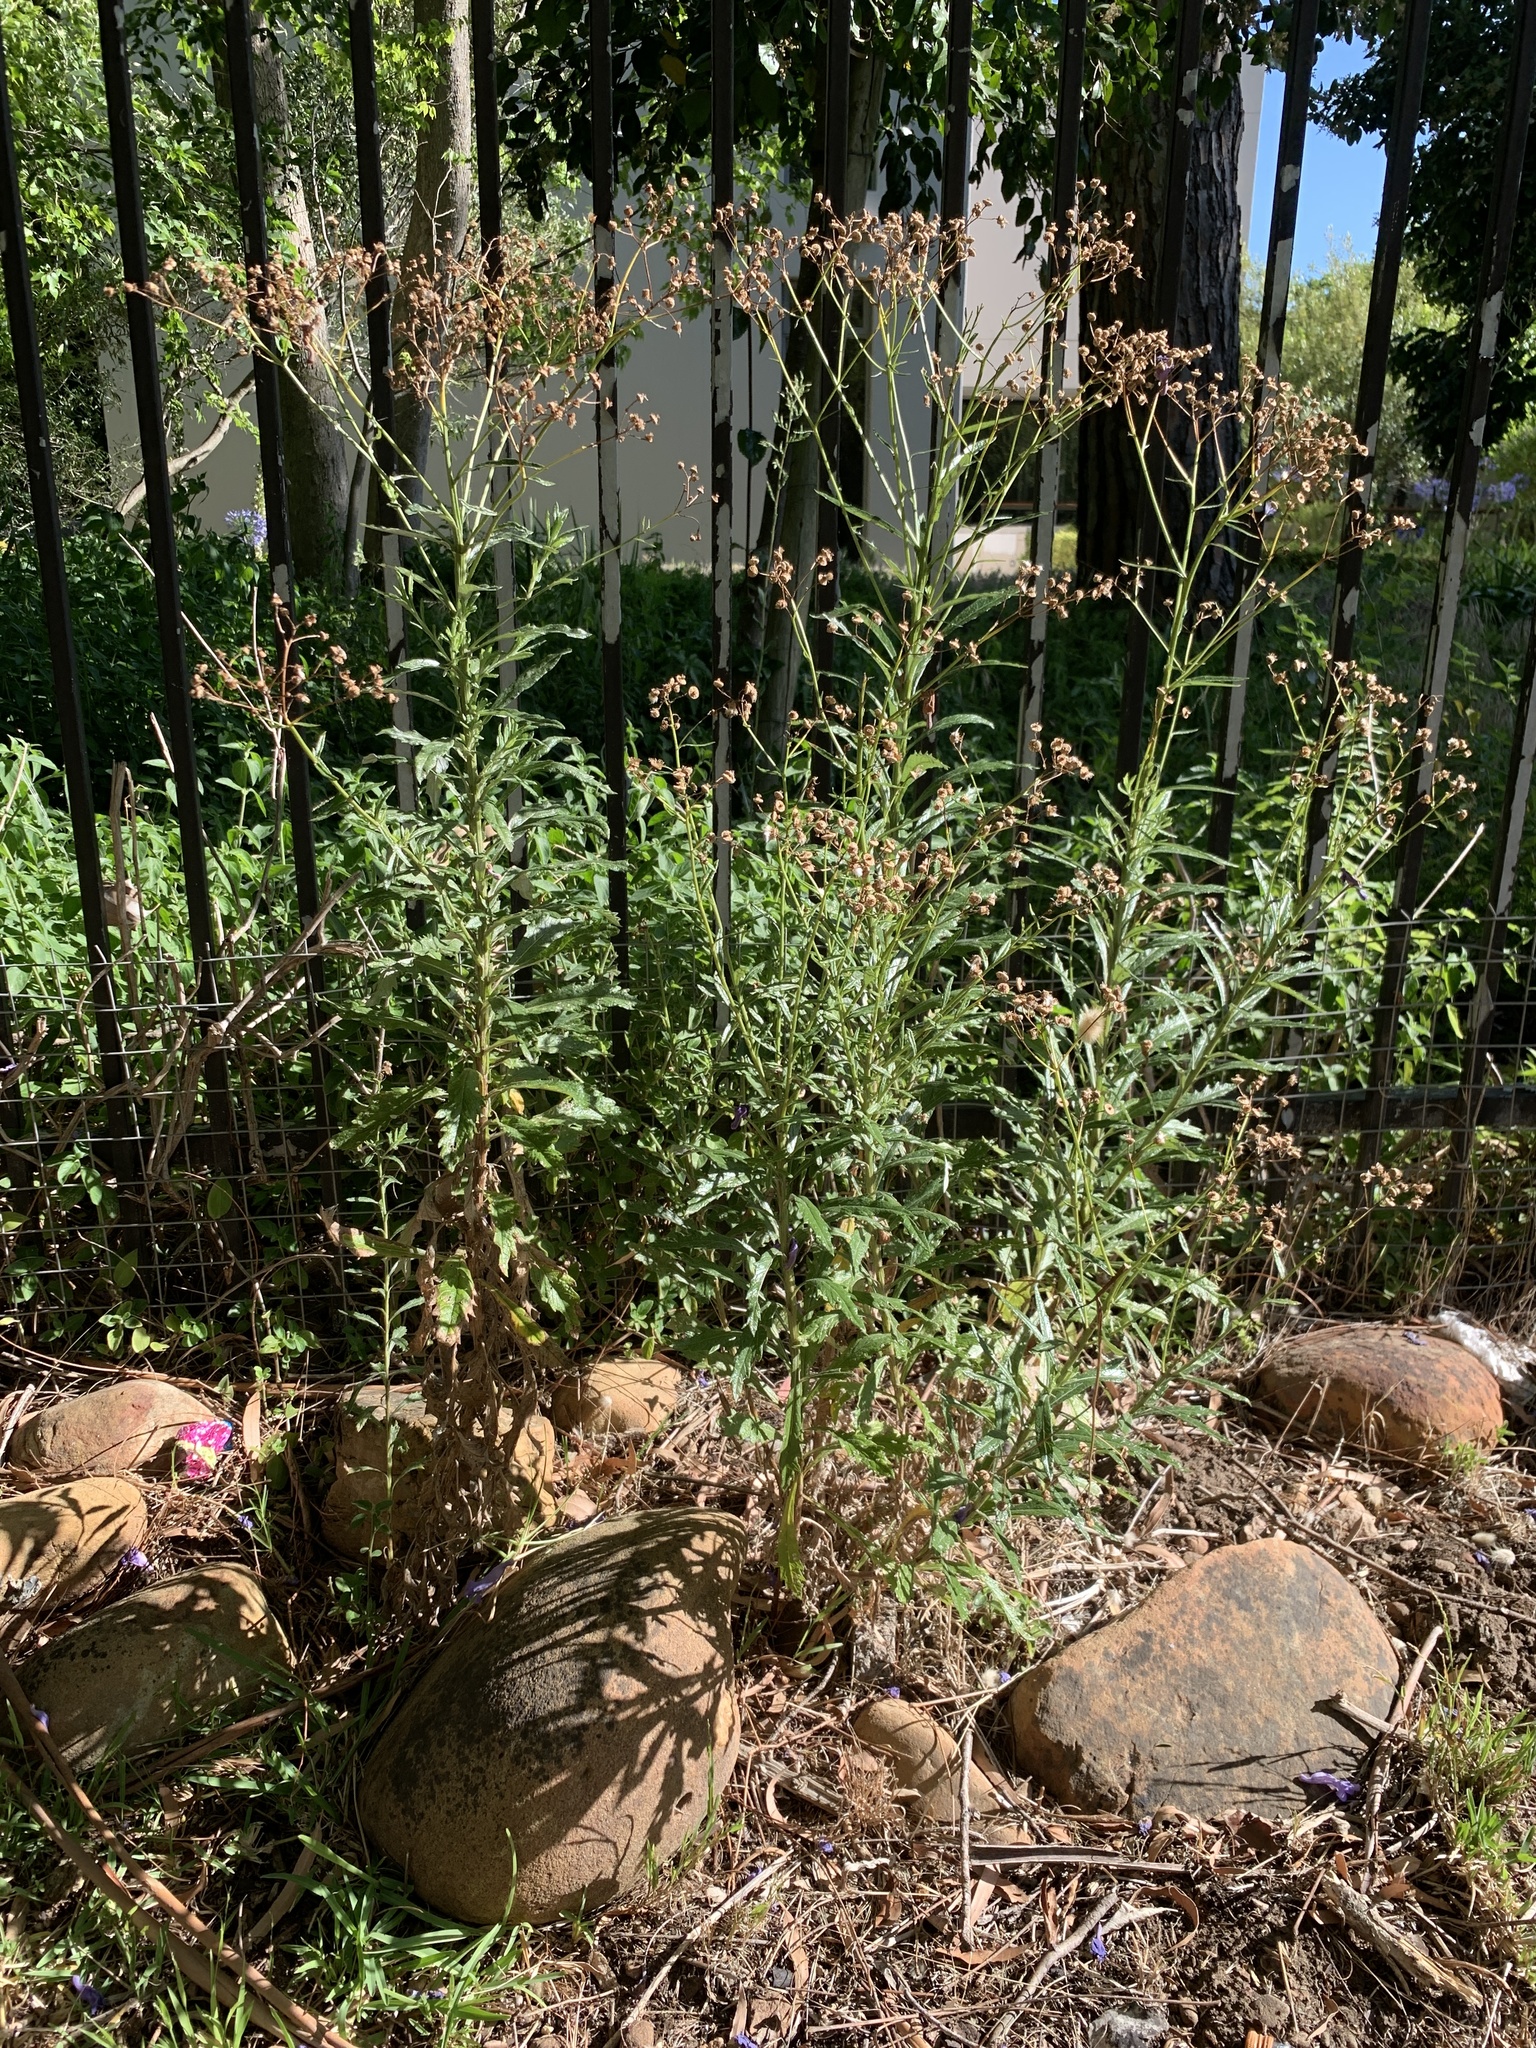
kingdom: Plantae
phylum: Tracheophyta
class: Magnoliopsida
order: Asterales
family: Asteraceae
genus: Senecio
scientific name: Senecio pterophorus
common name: Shoddy ragwort
